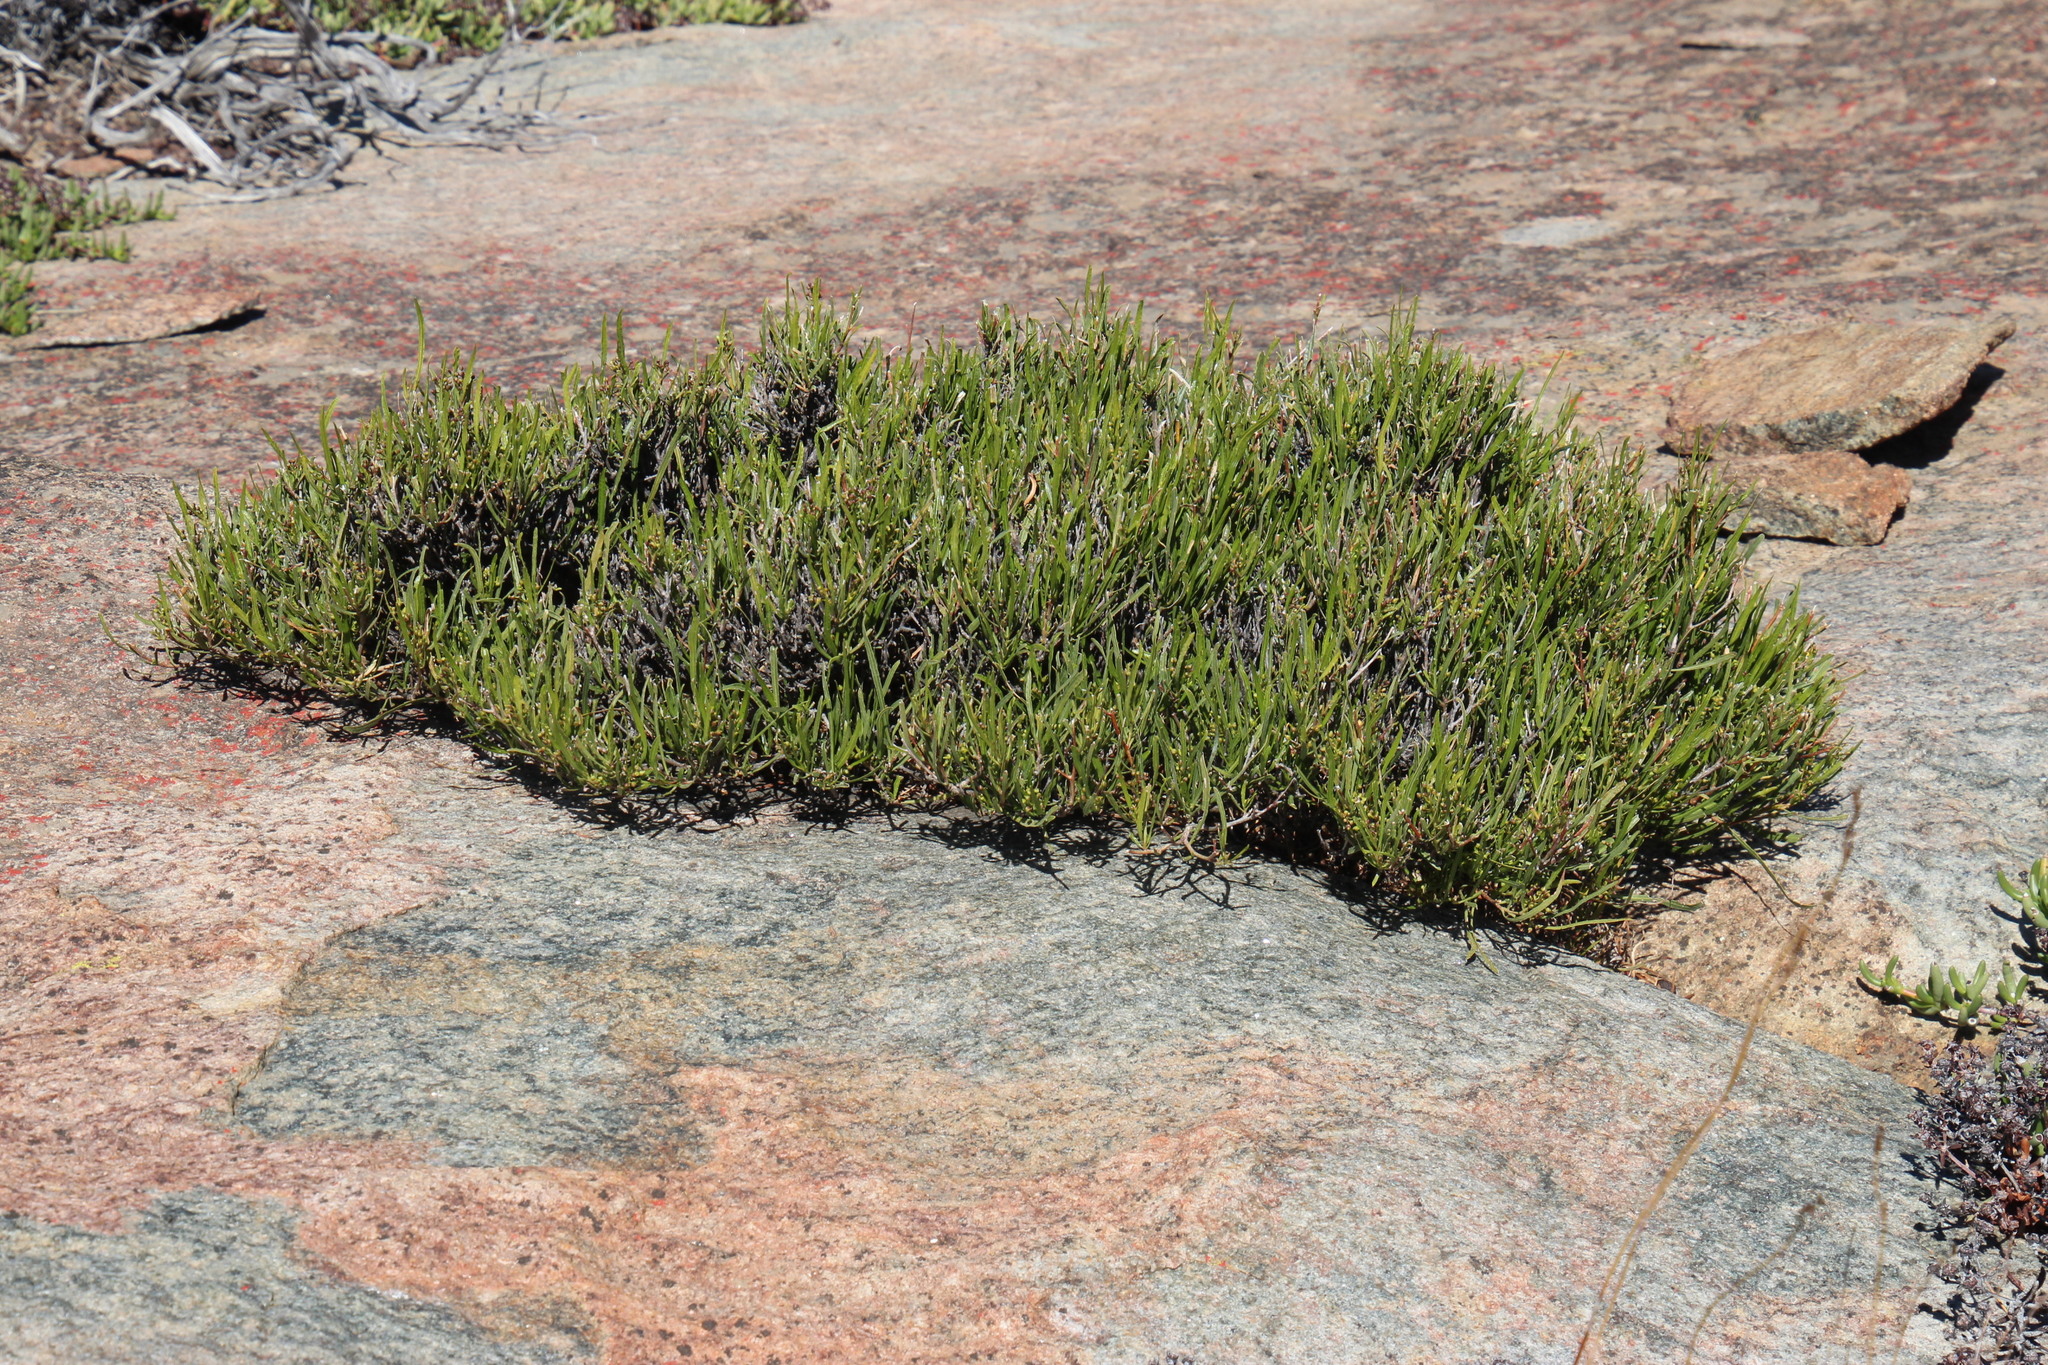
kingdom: Plantae
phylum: Tracheophyta
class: Magnoliopsida
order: Apiales
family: Apiaceae
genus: Centella
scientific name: Centella fusca
